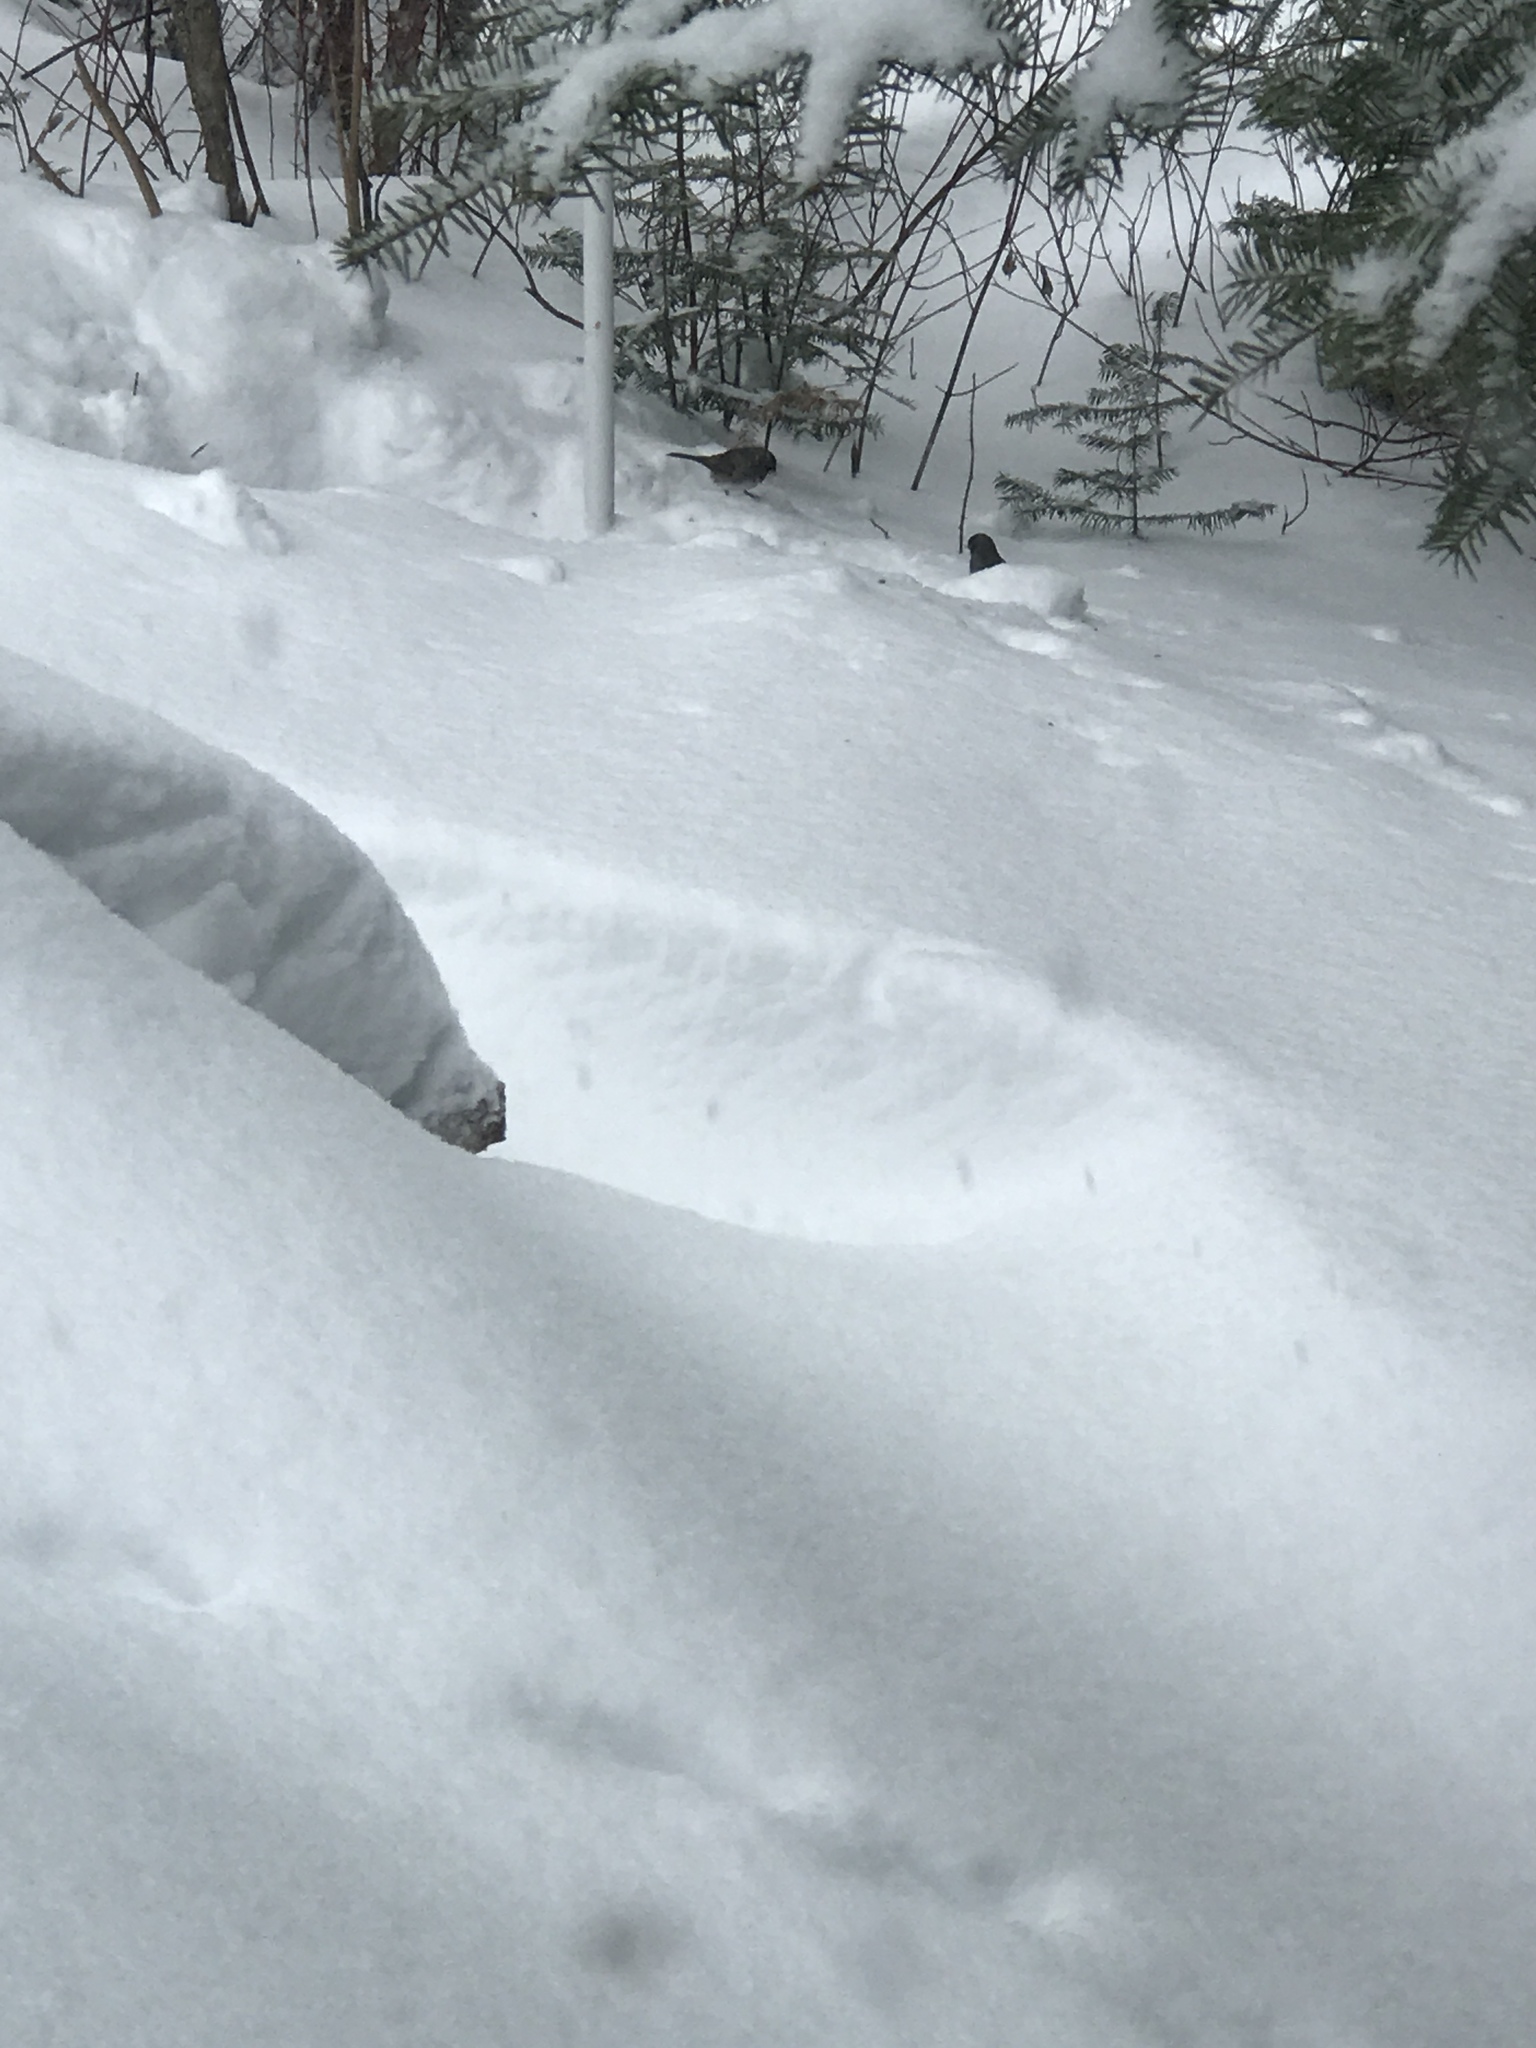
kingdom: Animalia
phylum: Chordata
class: Aves
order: Passeriformes
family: Passerellidae
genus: Junco
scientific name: Junco hyemalis
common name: Dark-eyed junco
